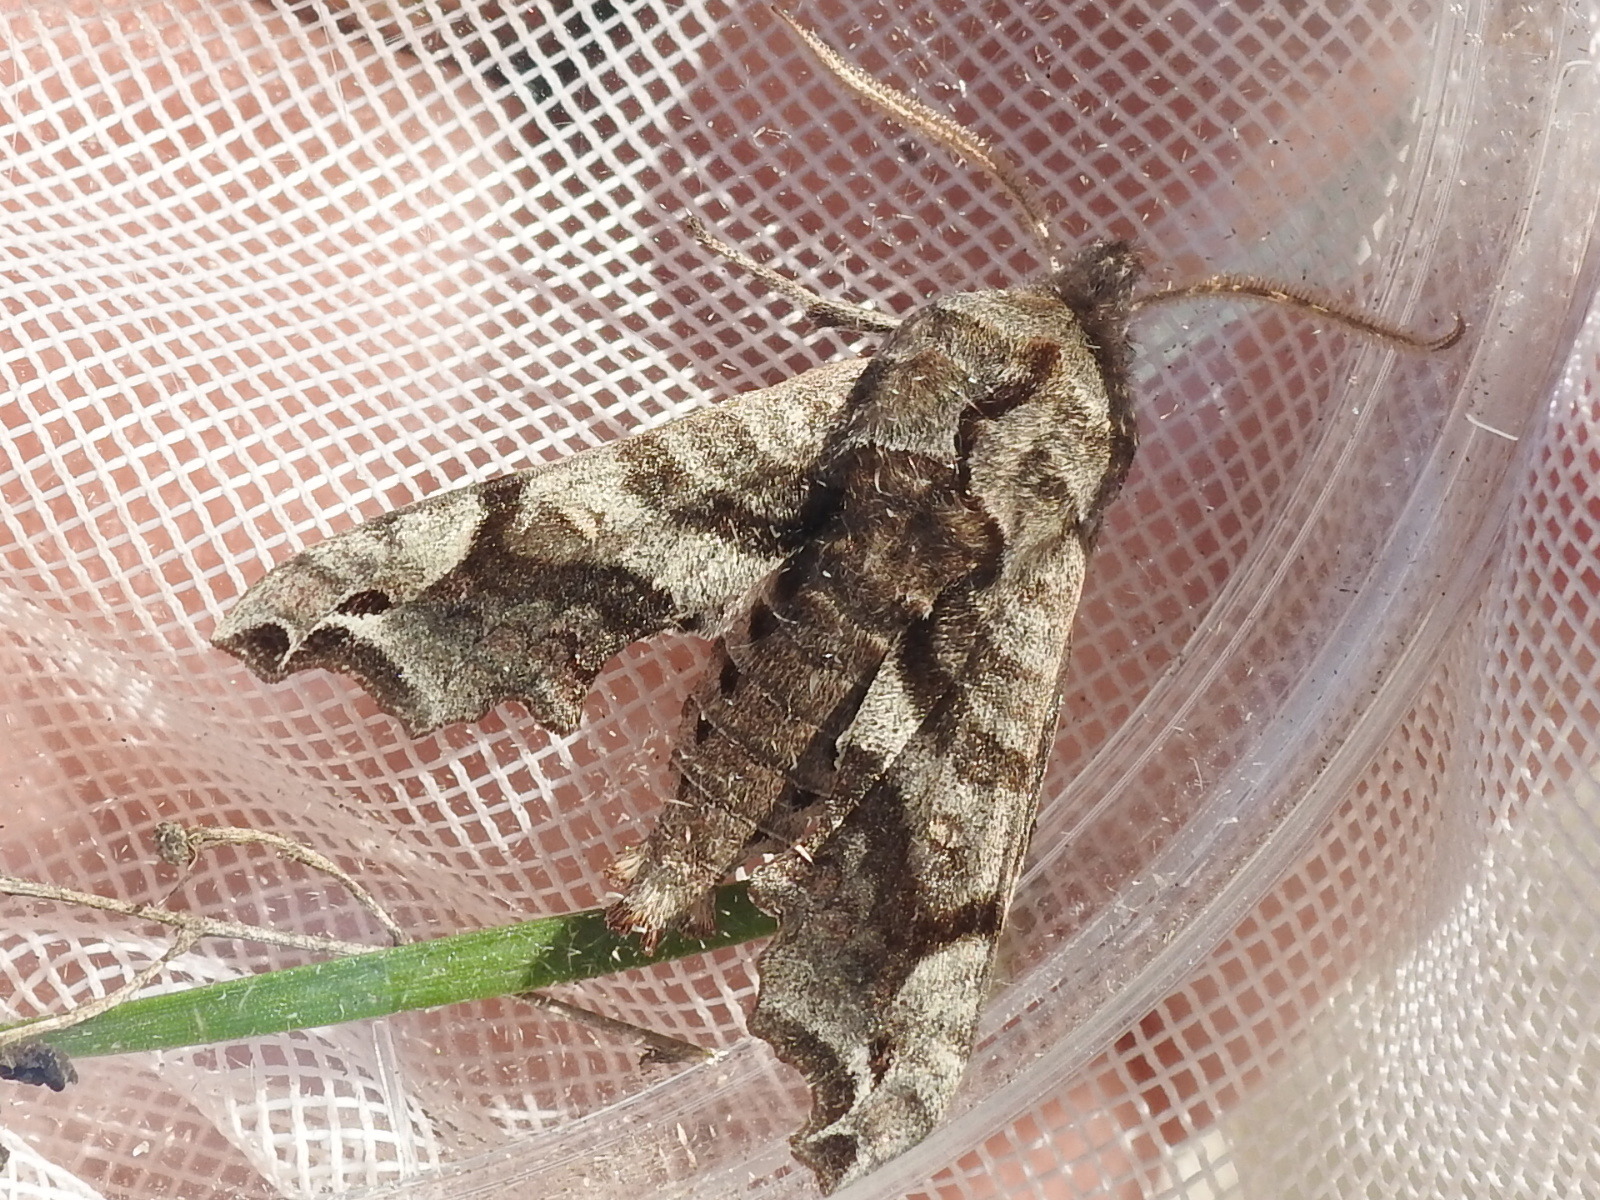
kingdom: Animalia
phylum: Arthropoda
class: Insecta
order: Lepidoptera
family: Sphingidae
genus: Deidamia
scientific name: Deidamia inscriptum
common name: Lettered sphinx
